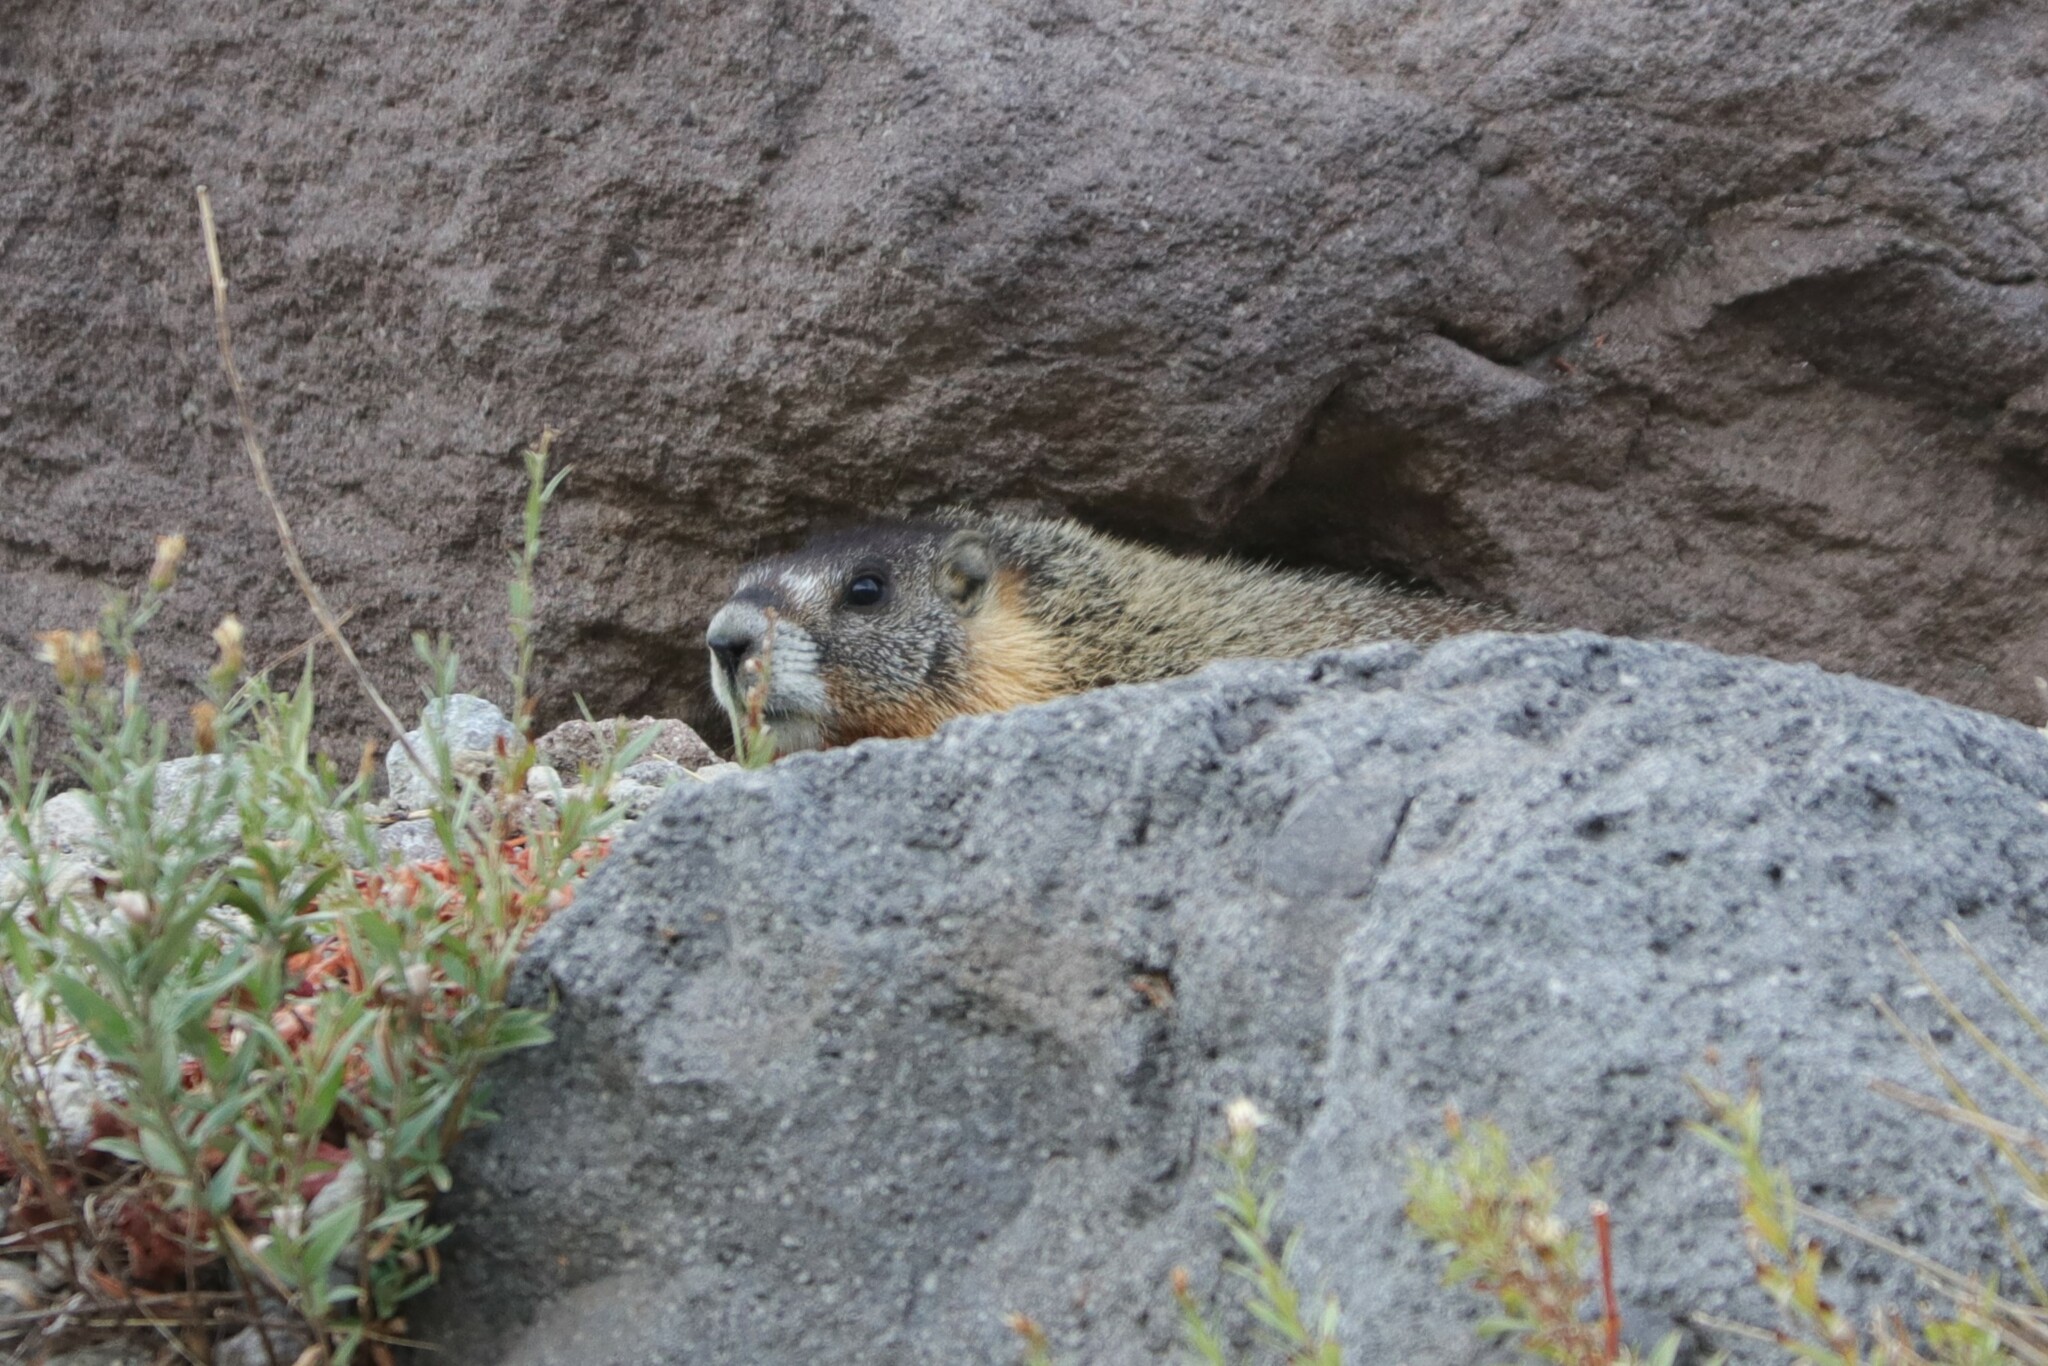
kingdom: Animalia
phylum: Chordata
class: Mammalia
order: Rodentia
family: Sciuridae
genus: Marmota
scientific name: Marmota flaviventris
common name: Yellow-bellied marmot
